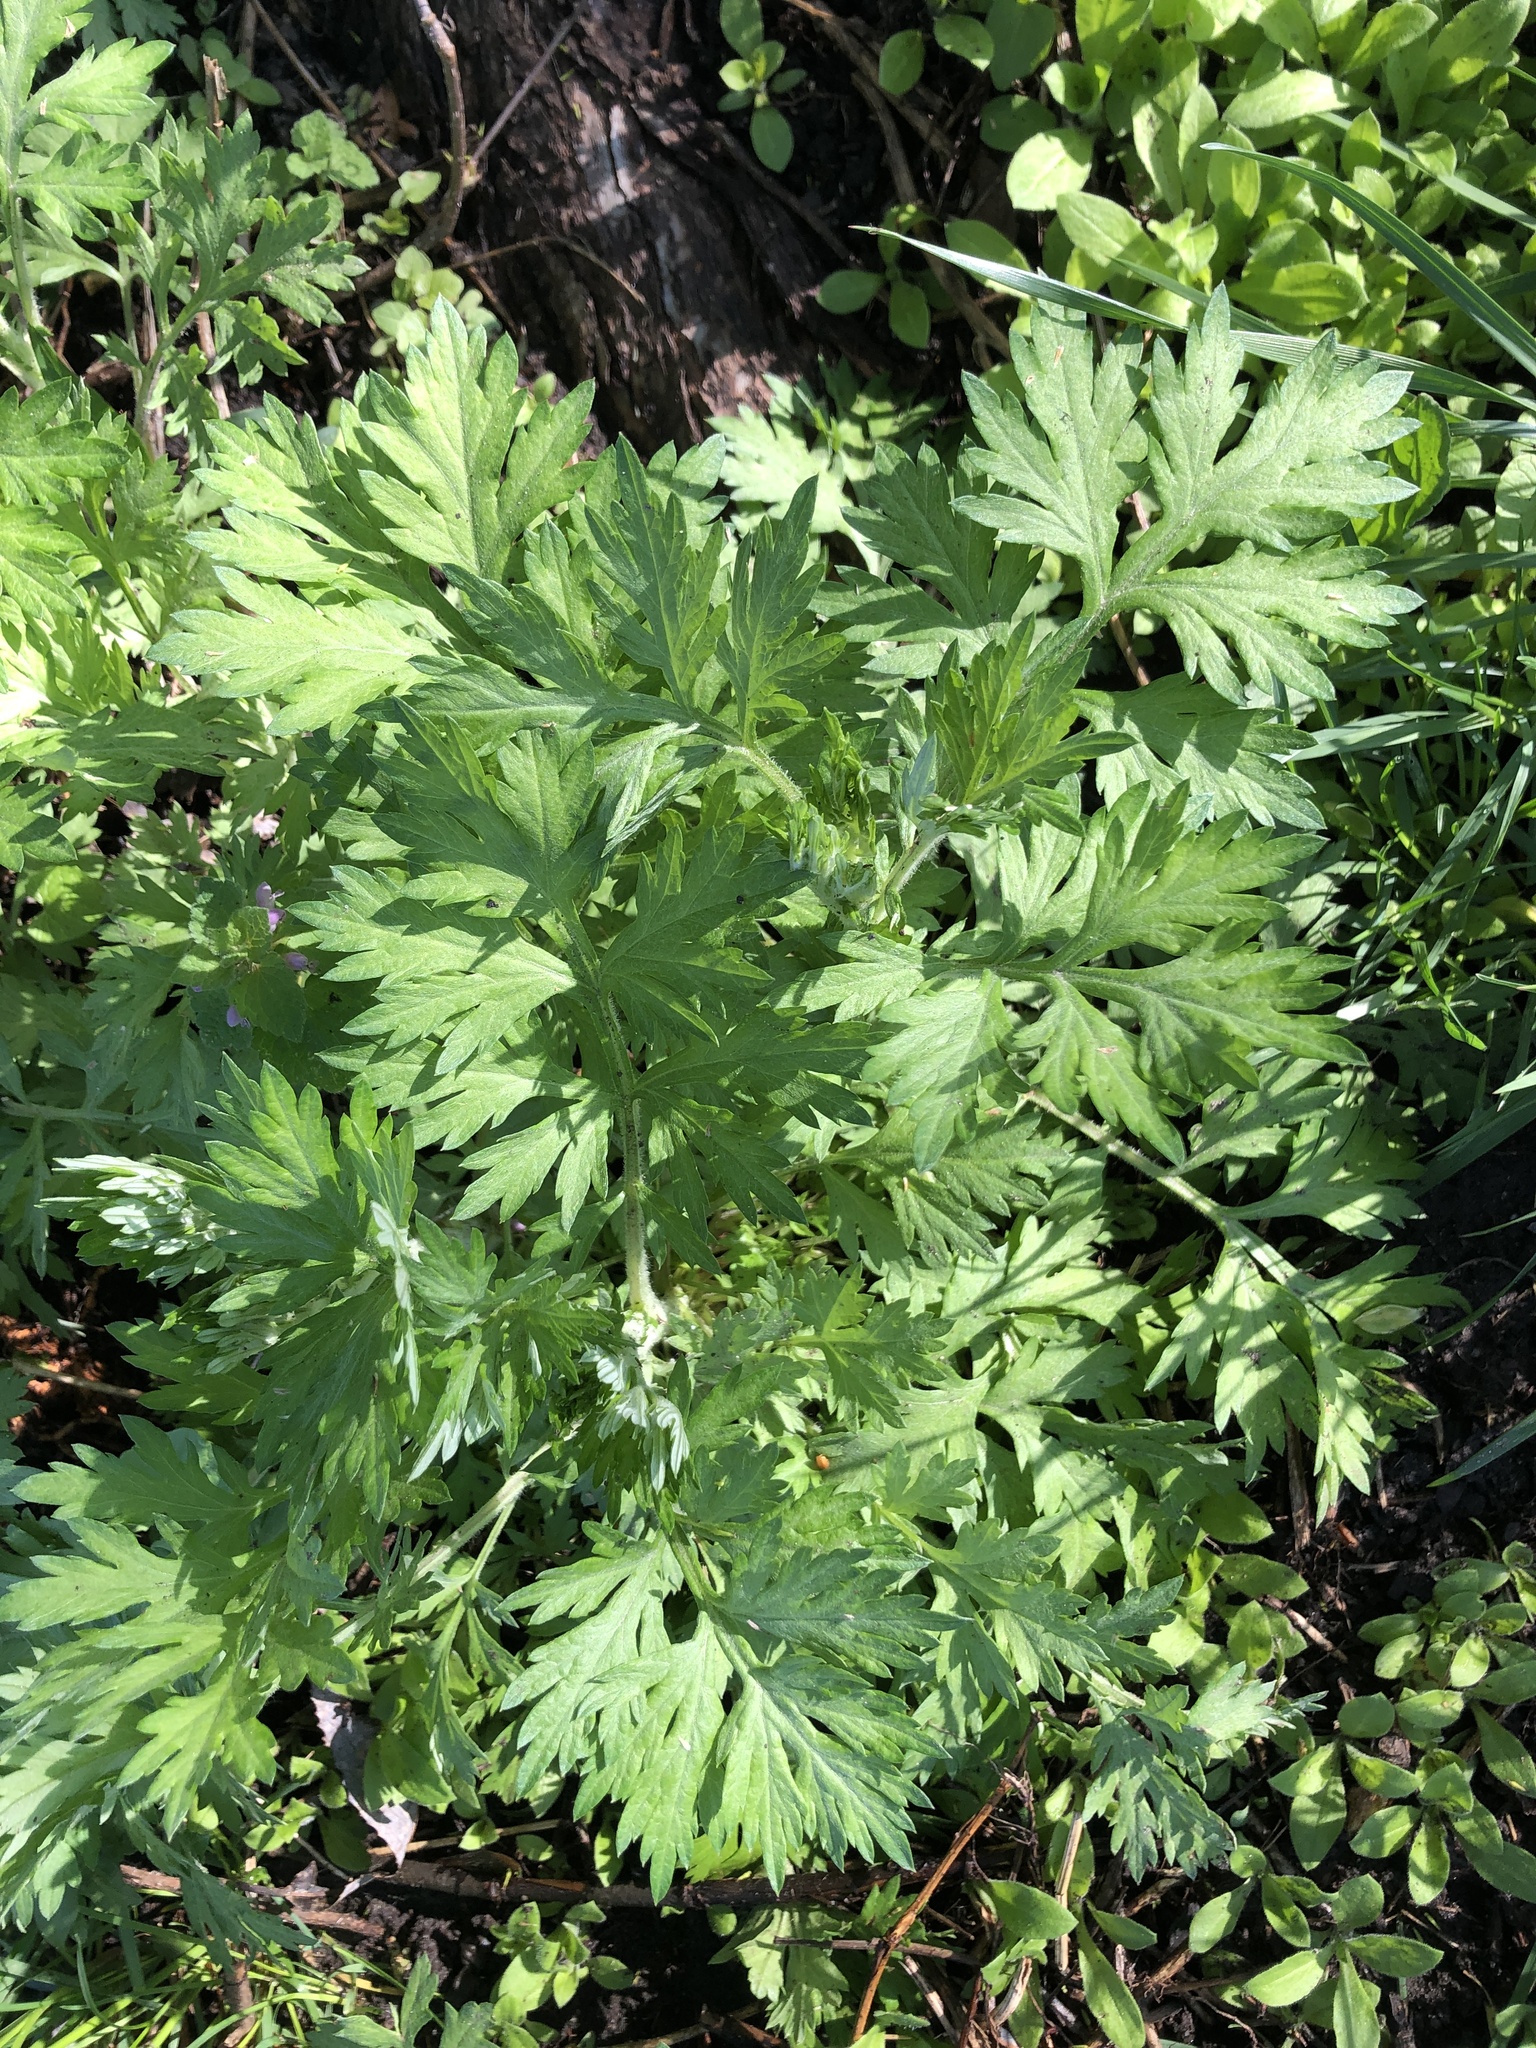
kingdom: Plantae
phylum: Tracheophyta
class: Magnoliopsida
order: Asterales
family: Asteraceae
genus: Artemisia
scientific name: Artemisia vulgaris
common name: Mugwort
